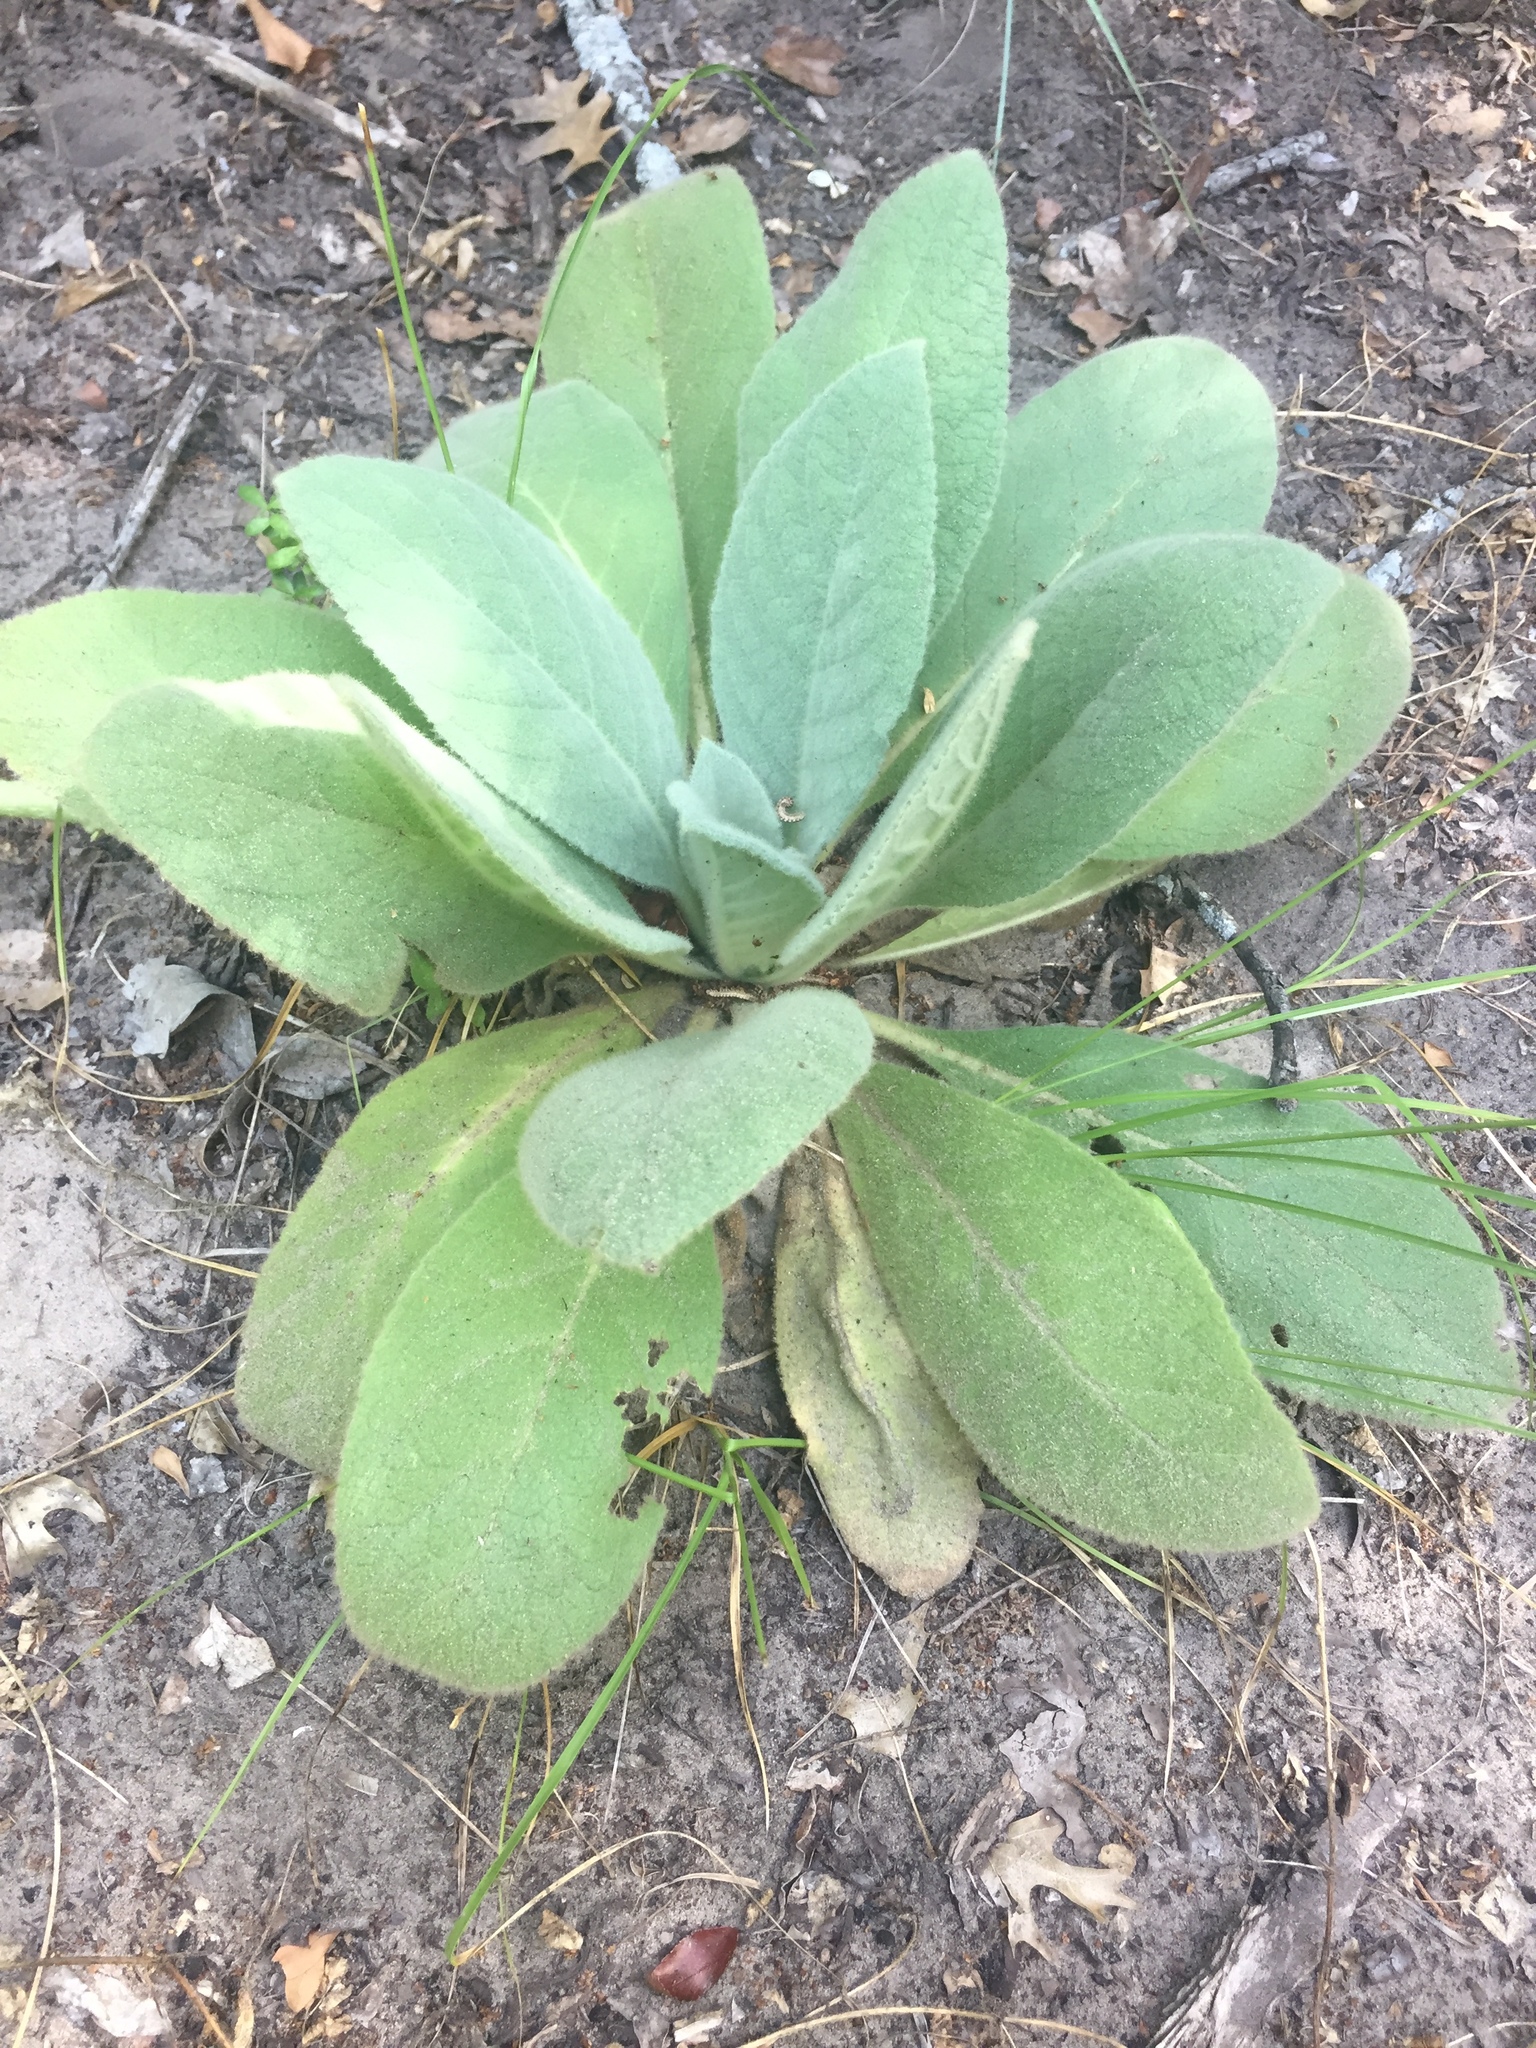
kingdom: Plantae
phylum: Tracheophyta
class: Magnoliopsida
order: Lamiales
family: Scrophulariaceae
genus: Verbascum
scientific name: Verbascum thapsus
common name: Common mullein
